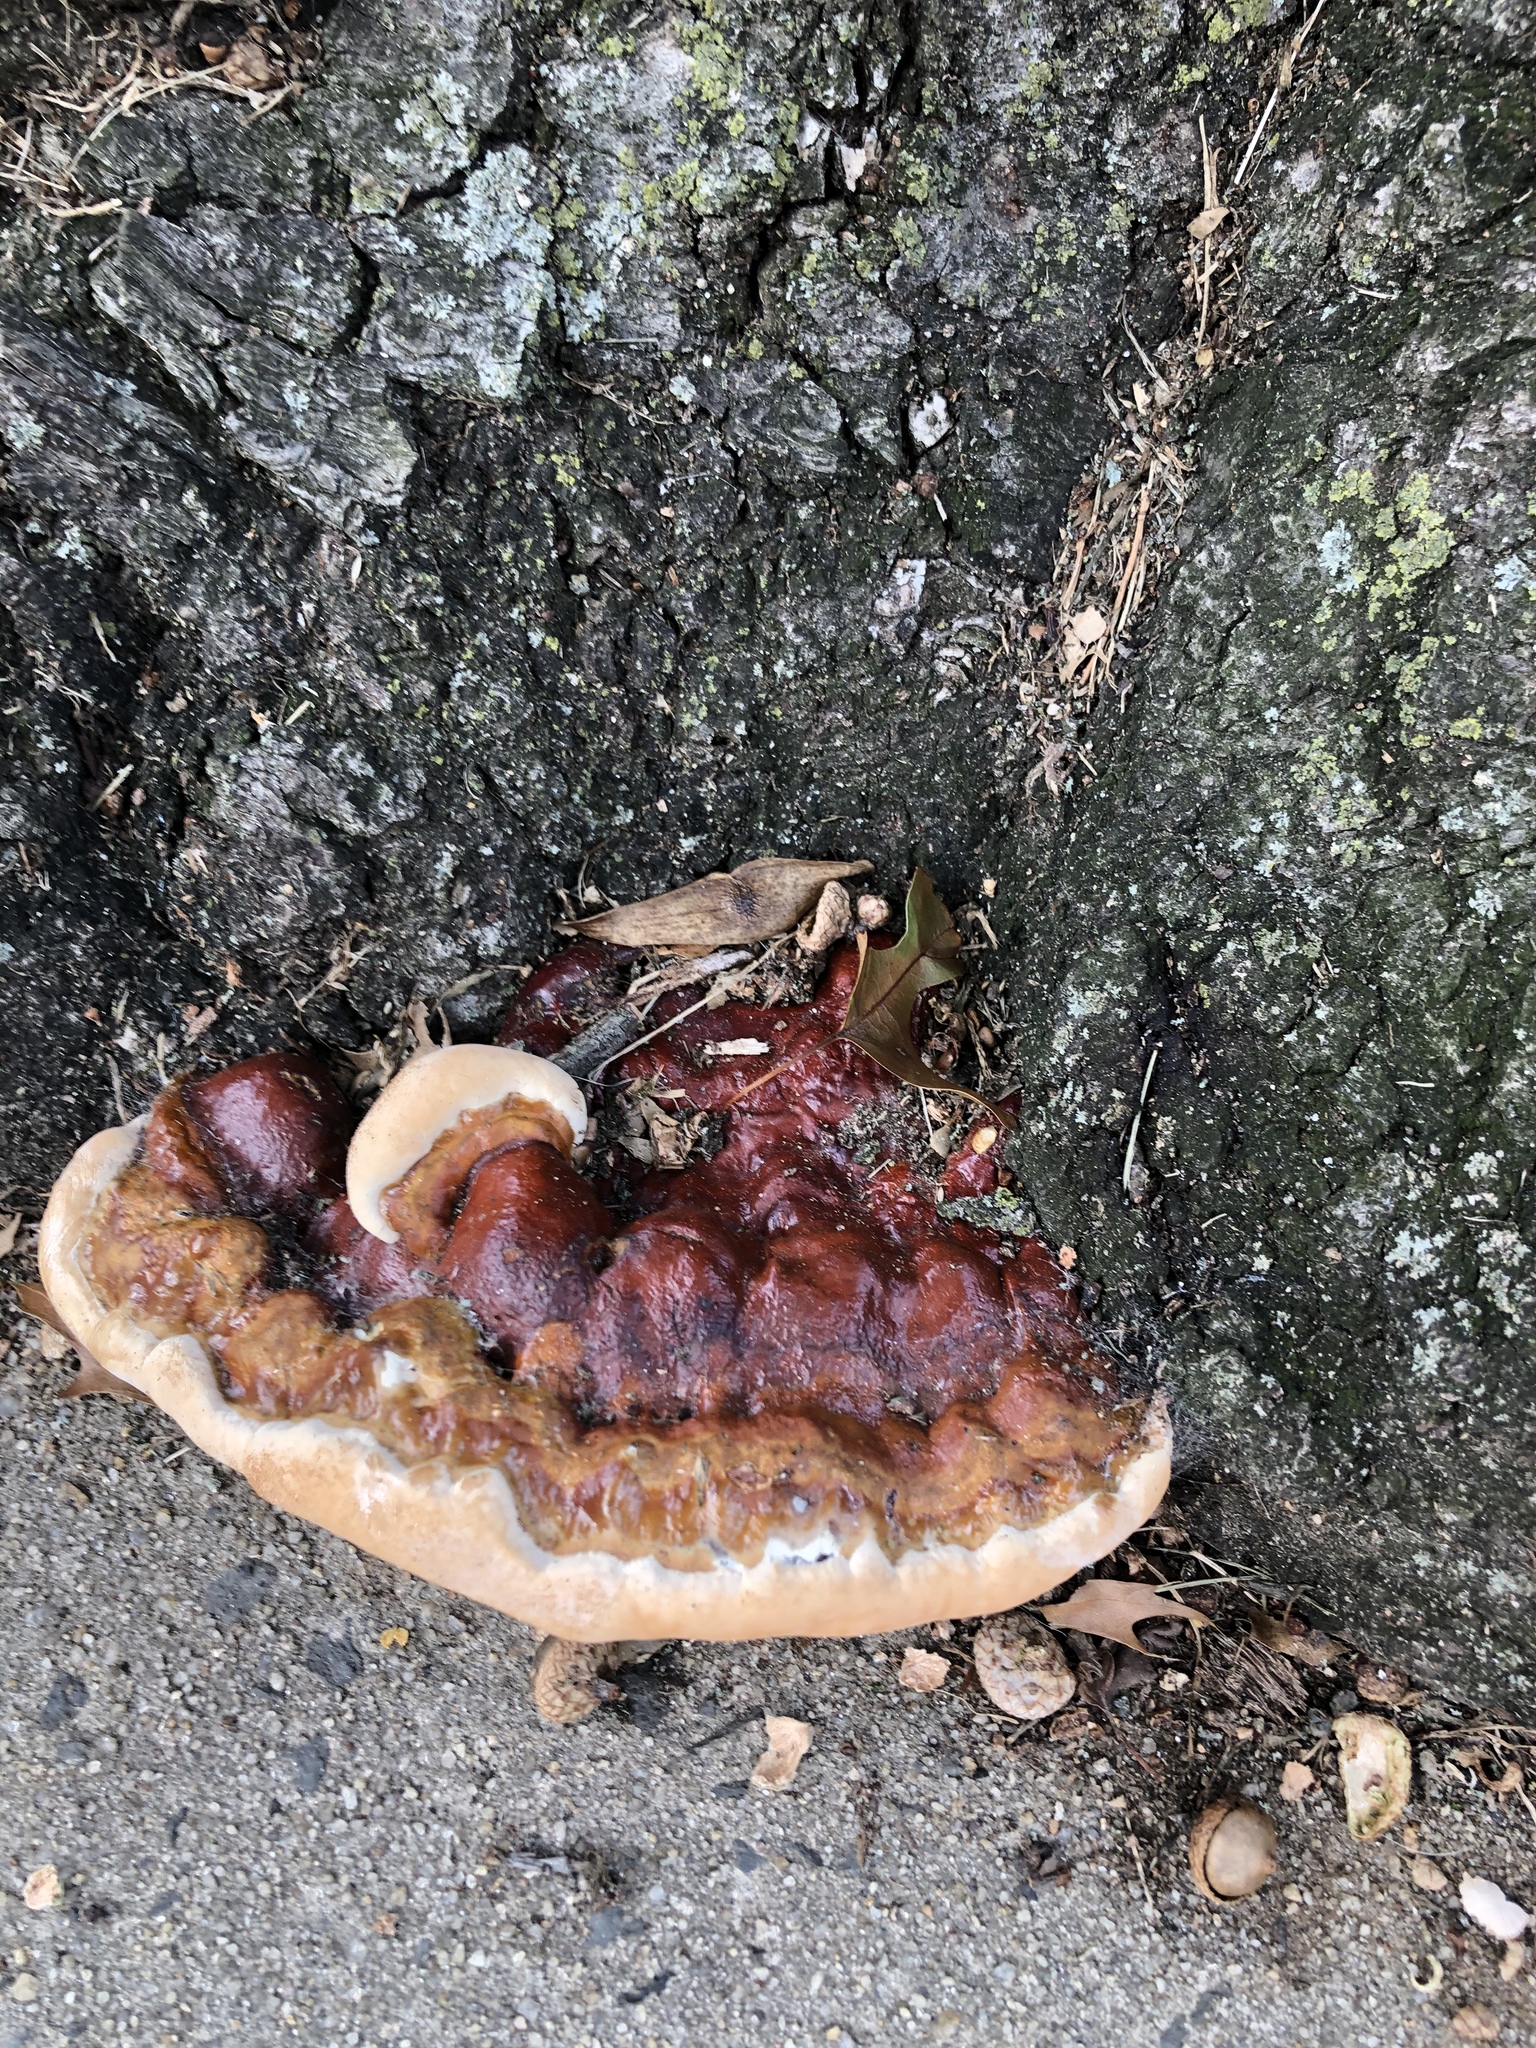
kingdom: Fungi
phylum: Basidiomycota
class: Agaricomycetes
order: Polyporales
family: Polyporaceae
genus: Ganoderma
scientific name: Ganoderma resinaceum
